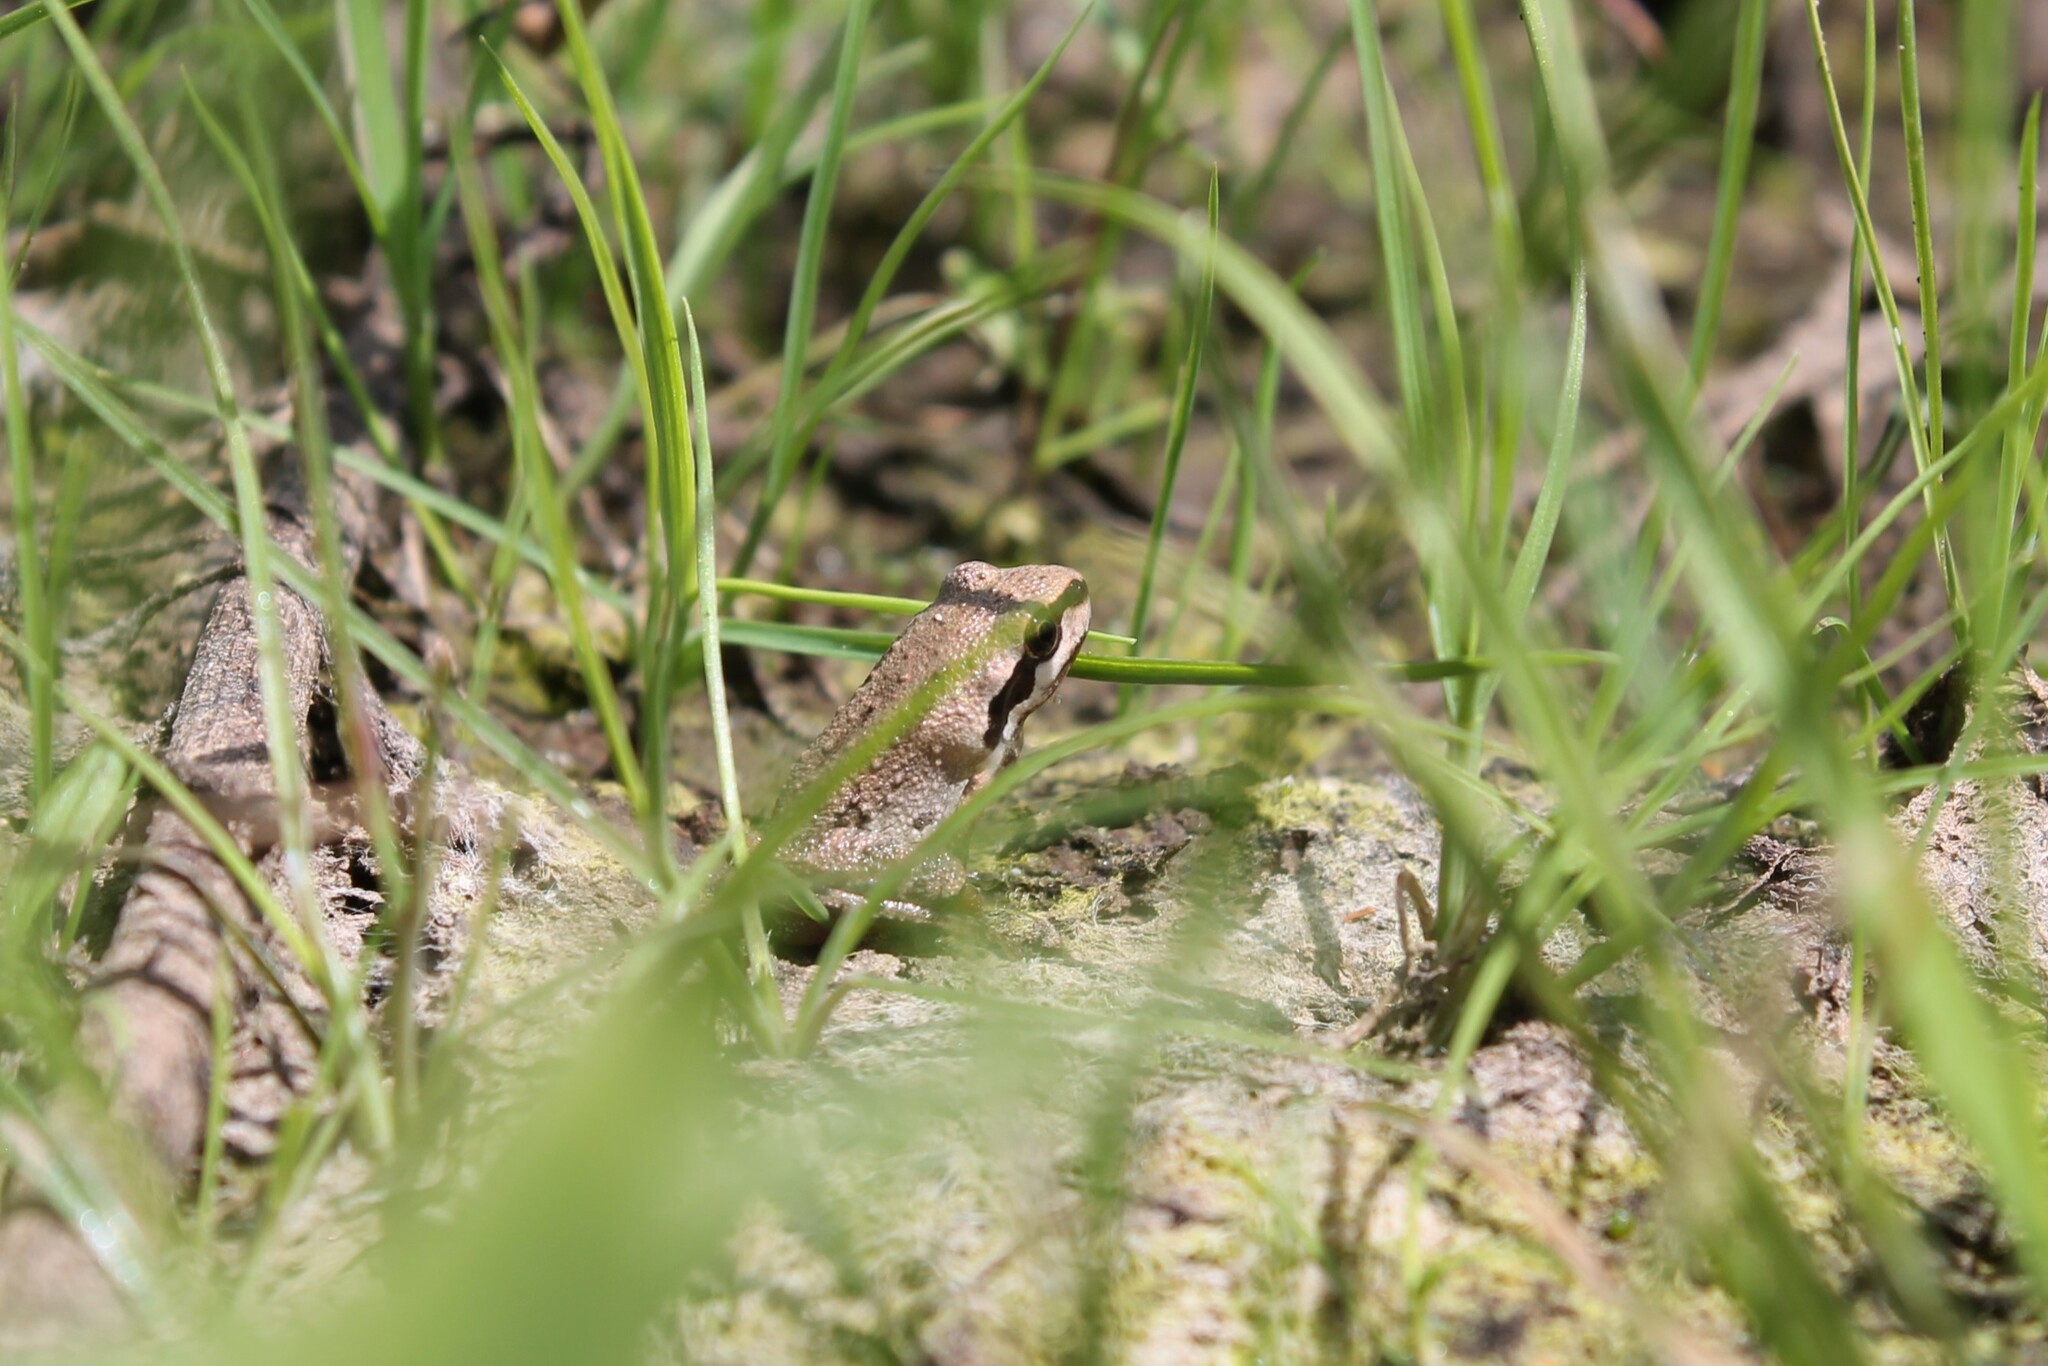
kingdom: Animalia
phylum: Chordata
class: Amphibia
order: Anura
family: Hylidae
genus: Pseudacris
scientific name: Pseudacris regilla
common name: Pacific chorus frog
